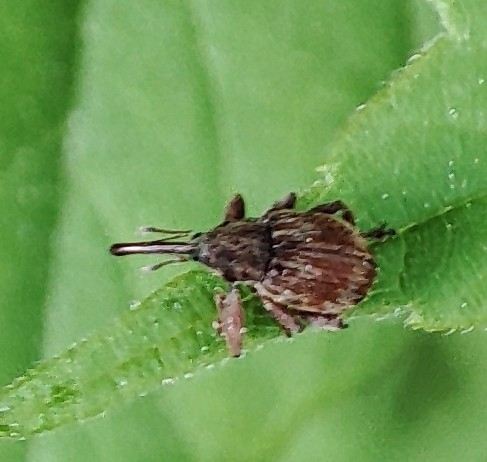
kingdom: Animalia
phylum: Arthropoda
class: Insecta
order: Coleoptera
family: Curculionidae
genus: Anthonomus
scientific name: Anthonomus rectirostris
